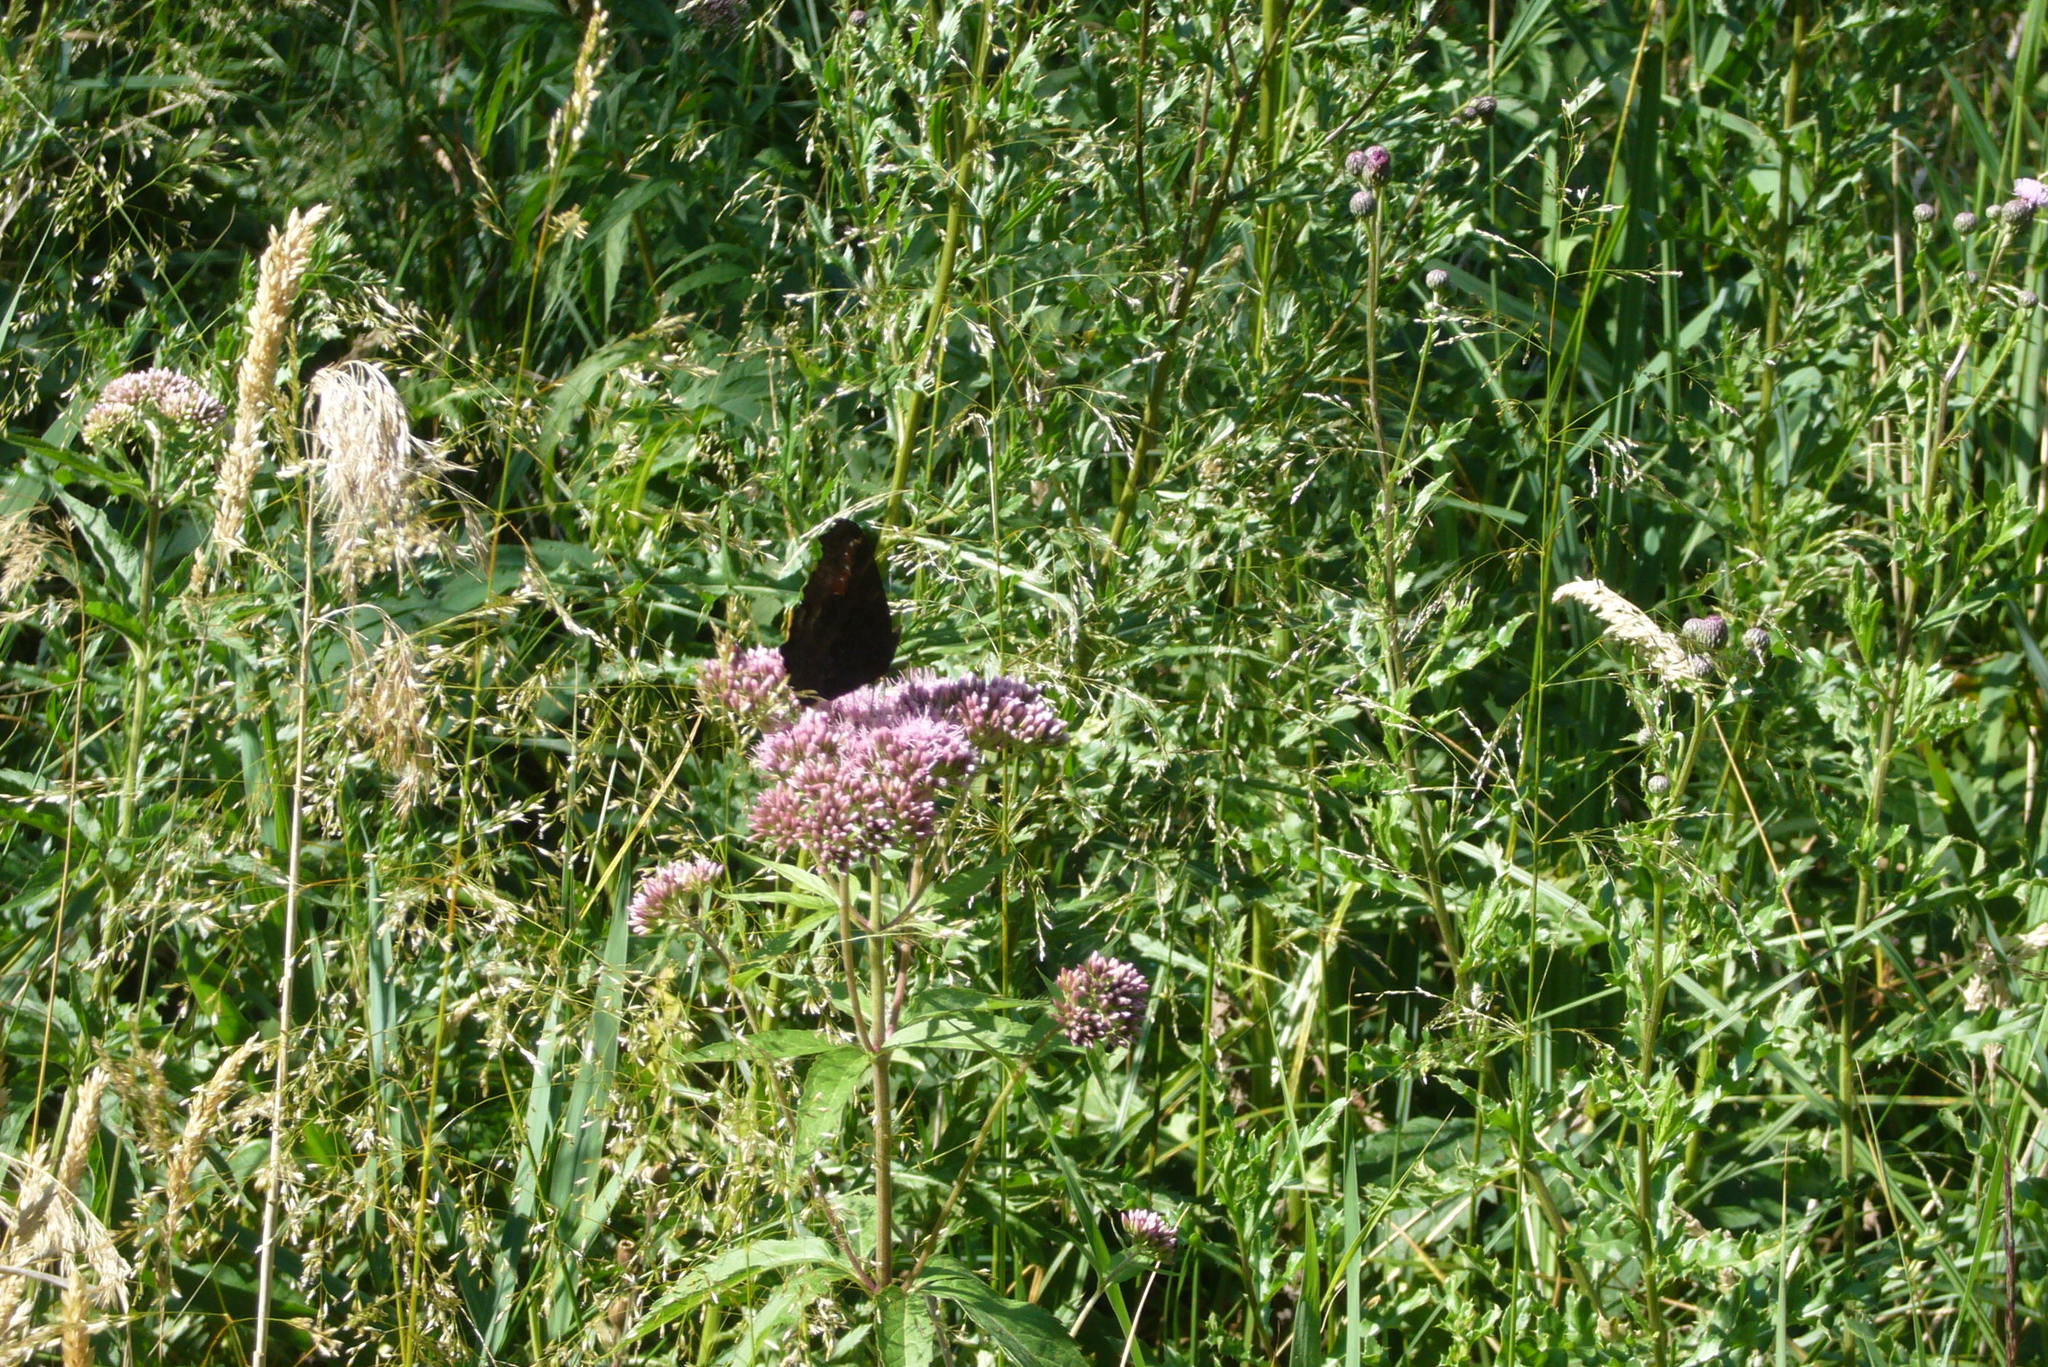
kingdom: Animalia
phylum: Arthropoda
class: Insecta
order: Lepidoptera
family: Nymphalidae
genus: Aglais
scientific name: Aglais io
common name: Peacock
